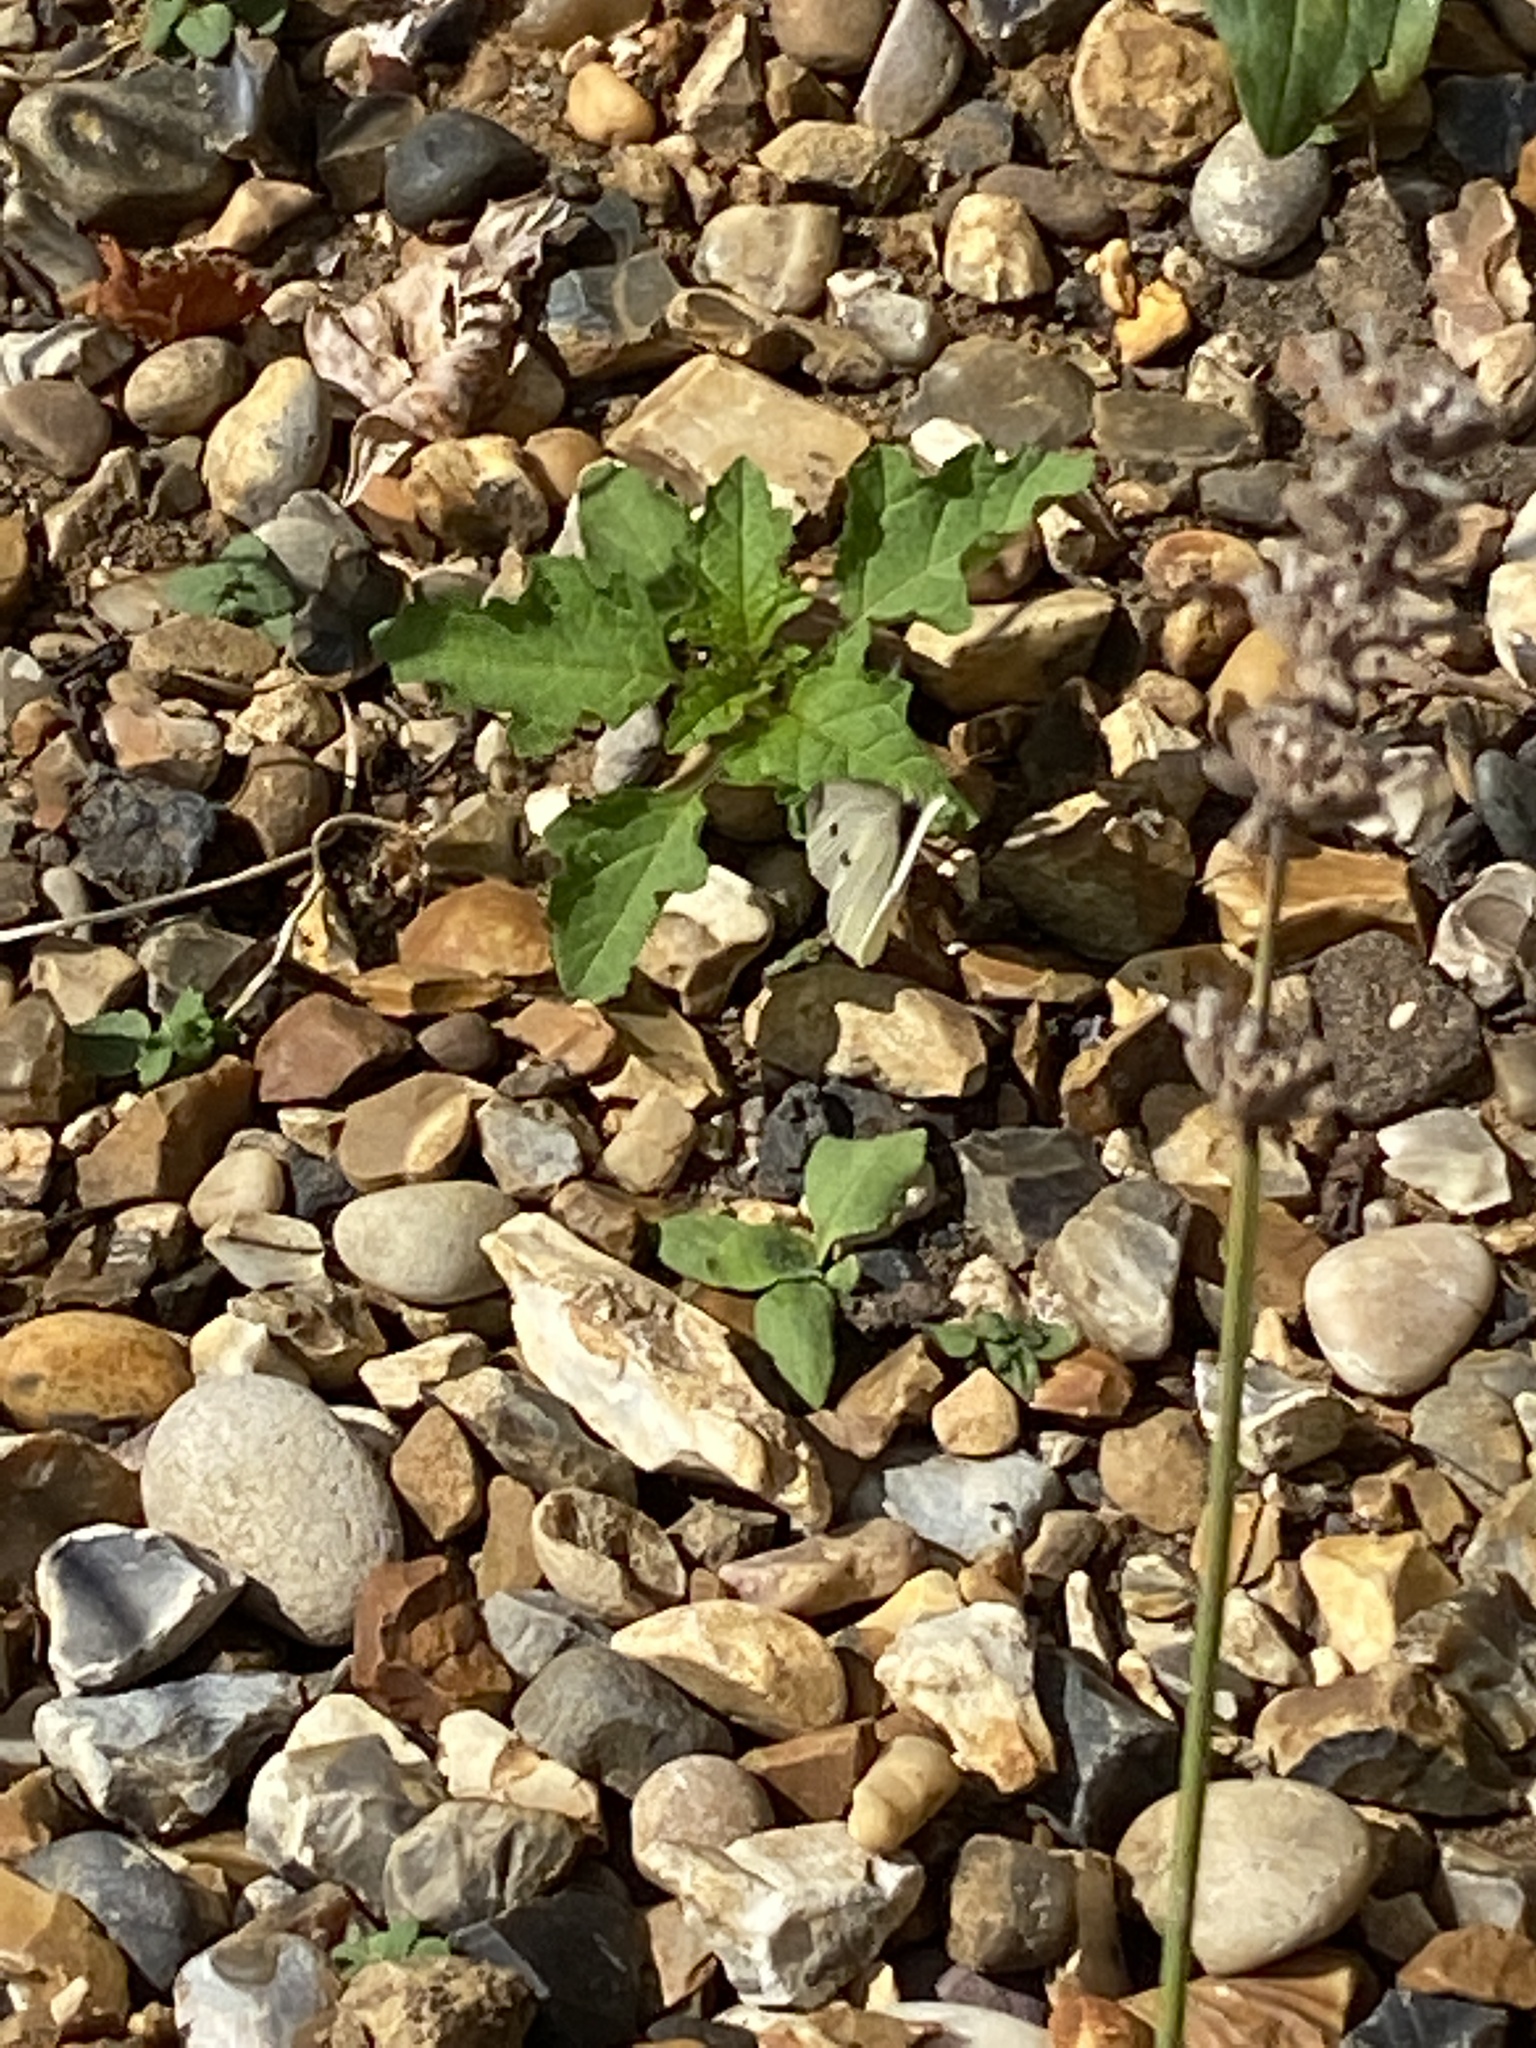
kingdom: Animalia
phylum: Arthropoda
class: Insecta
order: Lepidoptera
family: Pieridae
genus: Pieris
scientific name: Pieris rapae
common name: Small white
